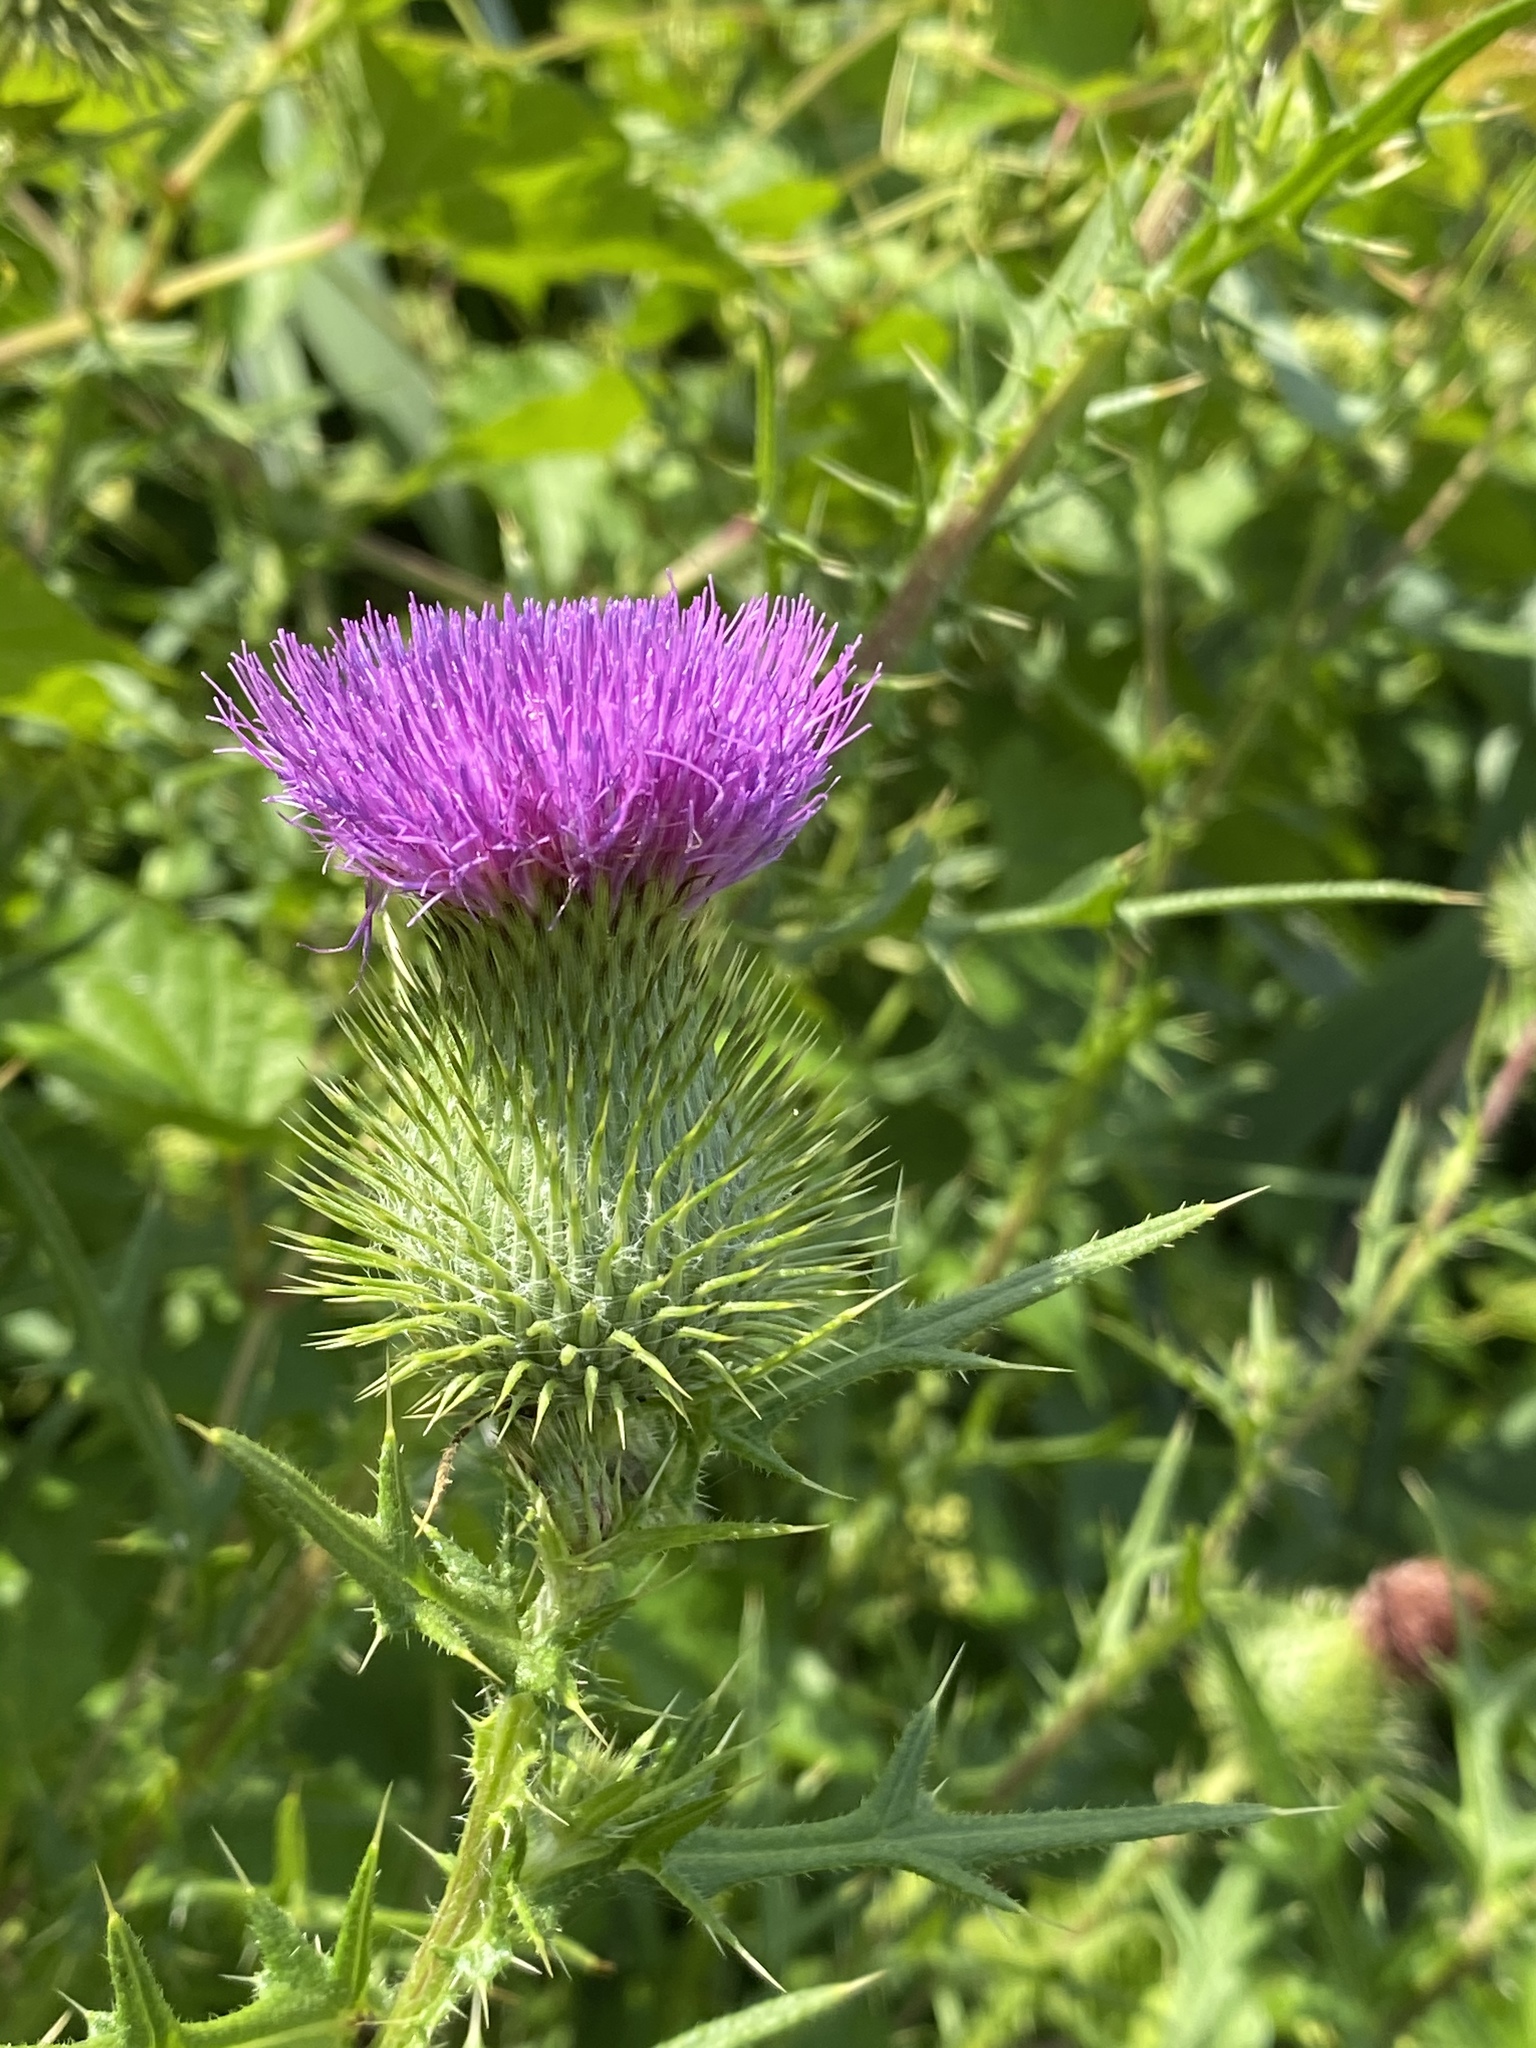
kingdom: Plantae
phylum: Tracheophyta
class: Magnoliopsida
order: Asterales
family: Asteraceae
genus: Cirsium
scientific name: Cirsium vulgare
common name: Bull thistle
